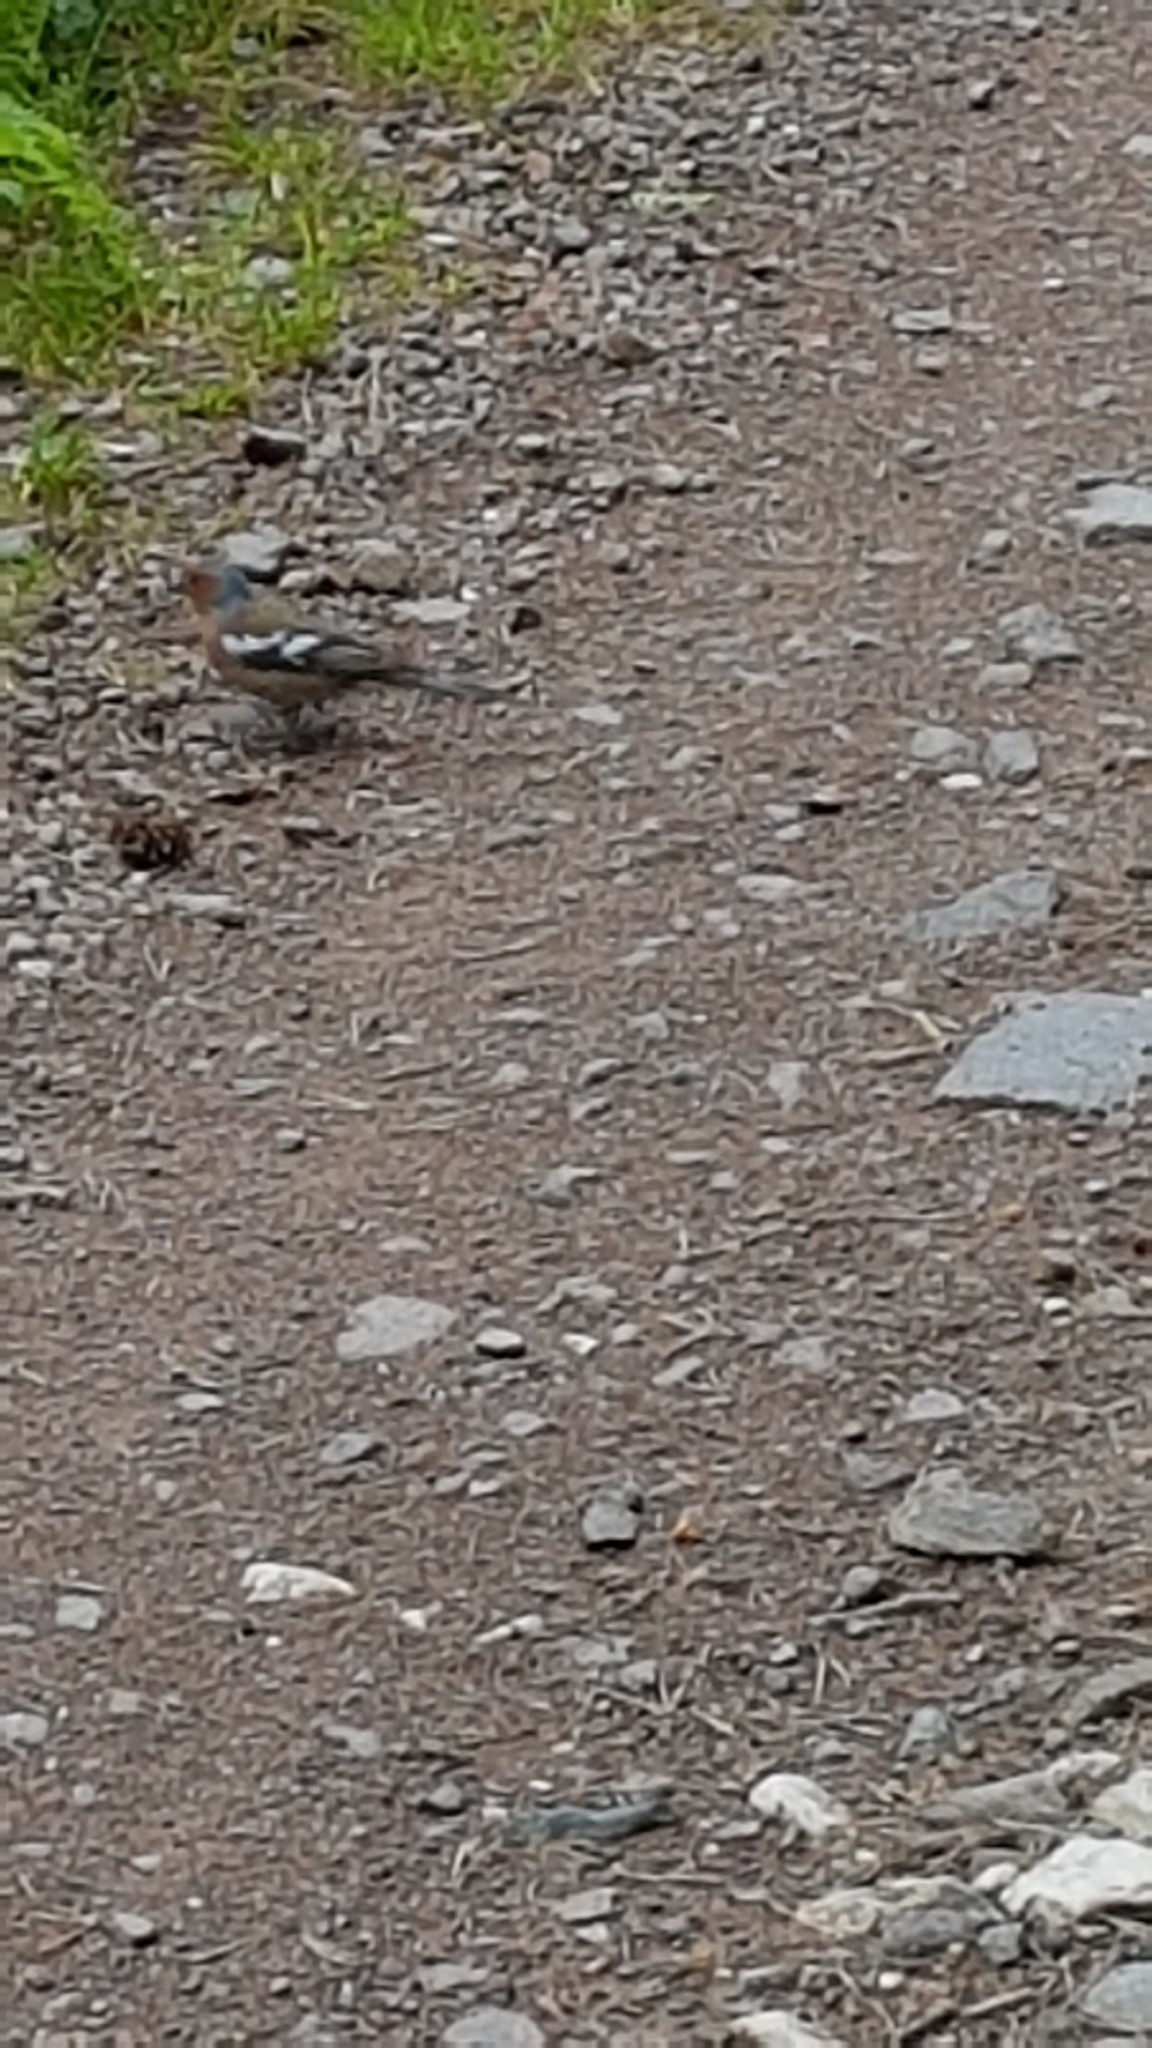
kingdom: Animalia
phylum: Chordata
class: Aves
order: Passeriformes
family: Fringillidae
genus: Fringilla
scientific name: Fringilla coelebs
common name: Common chaffinch
